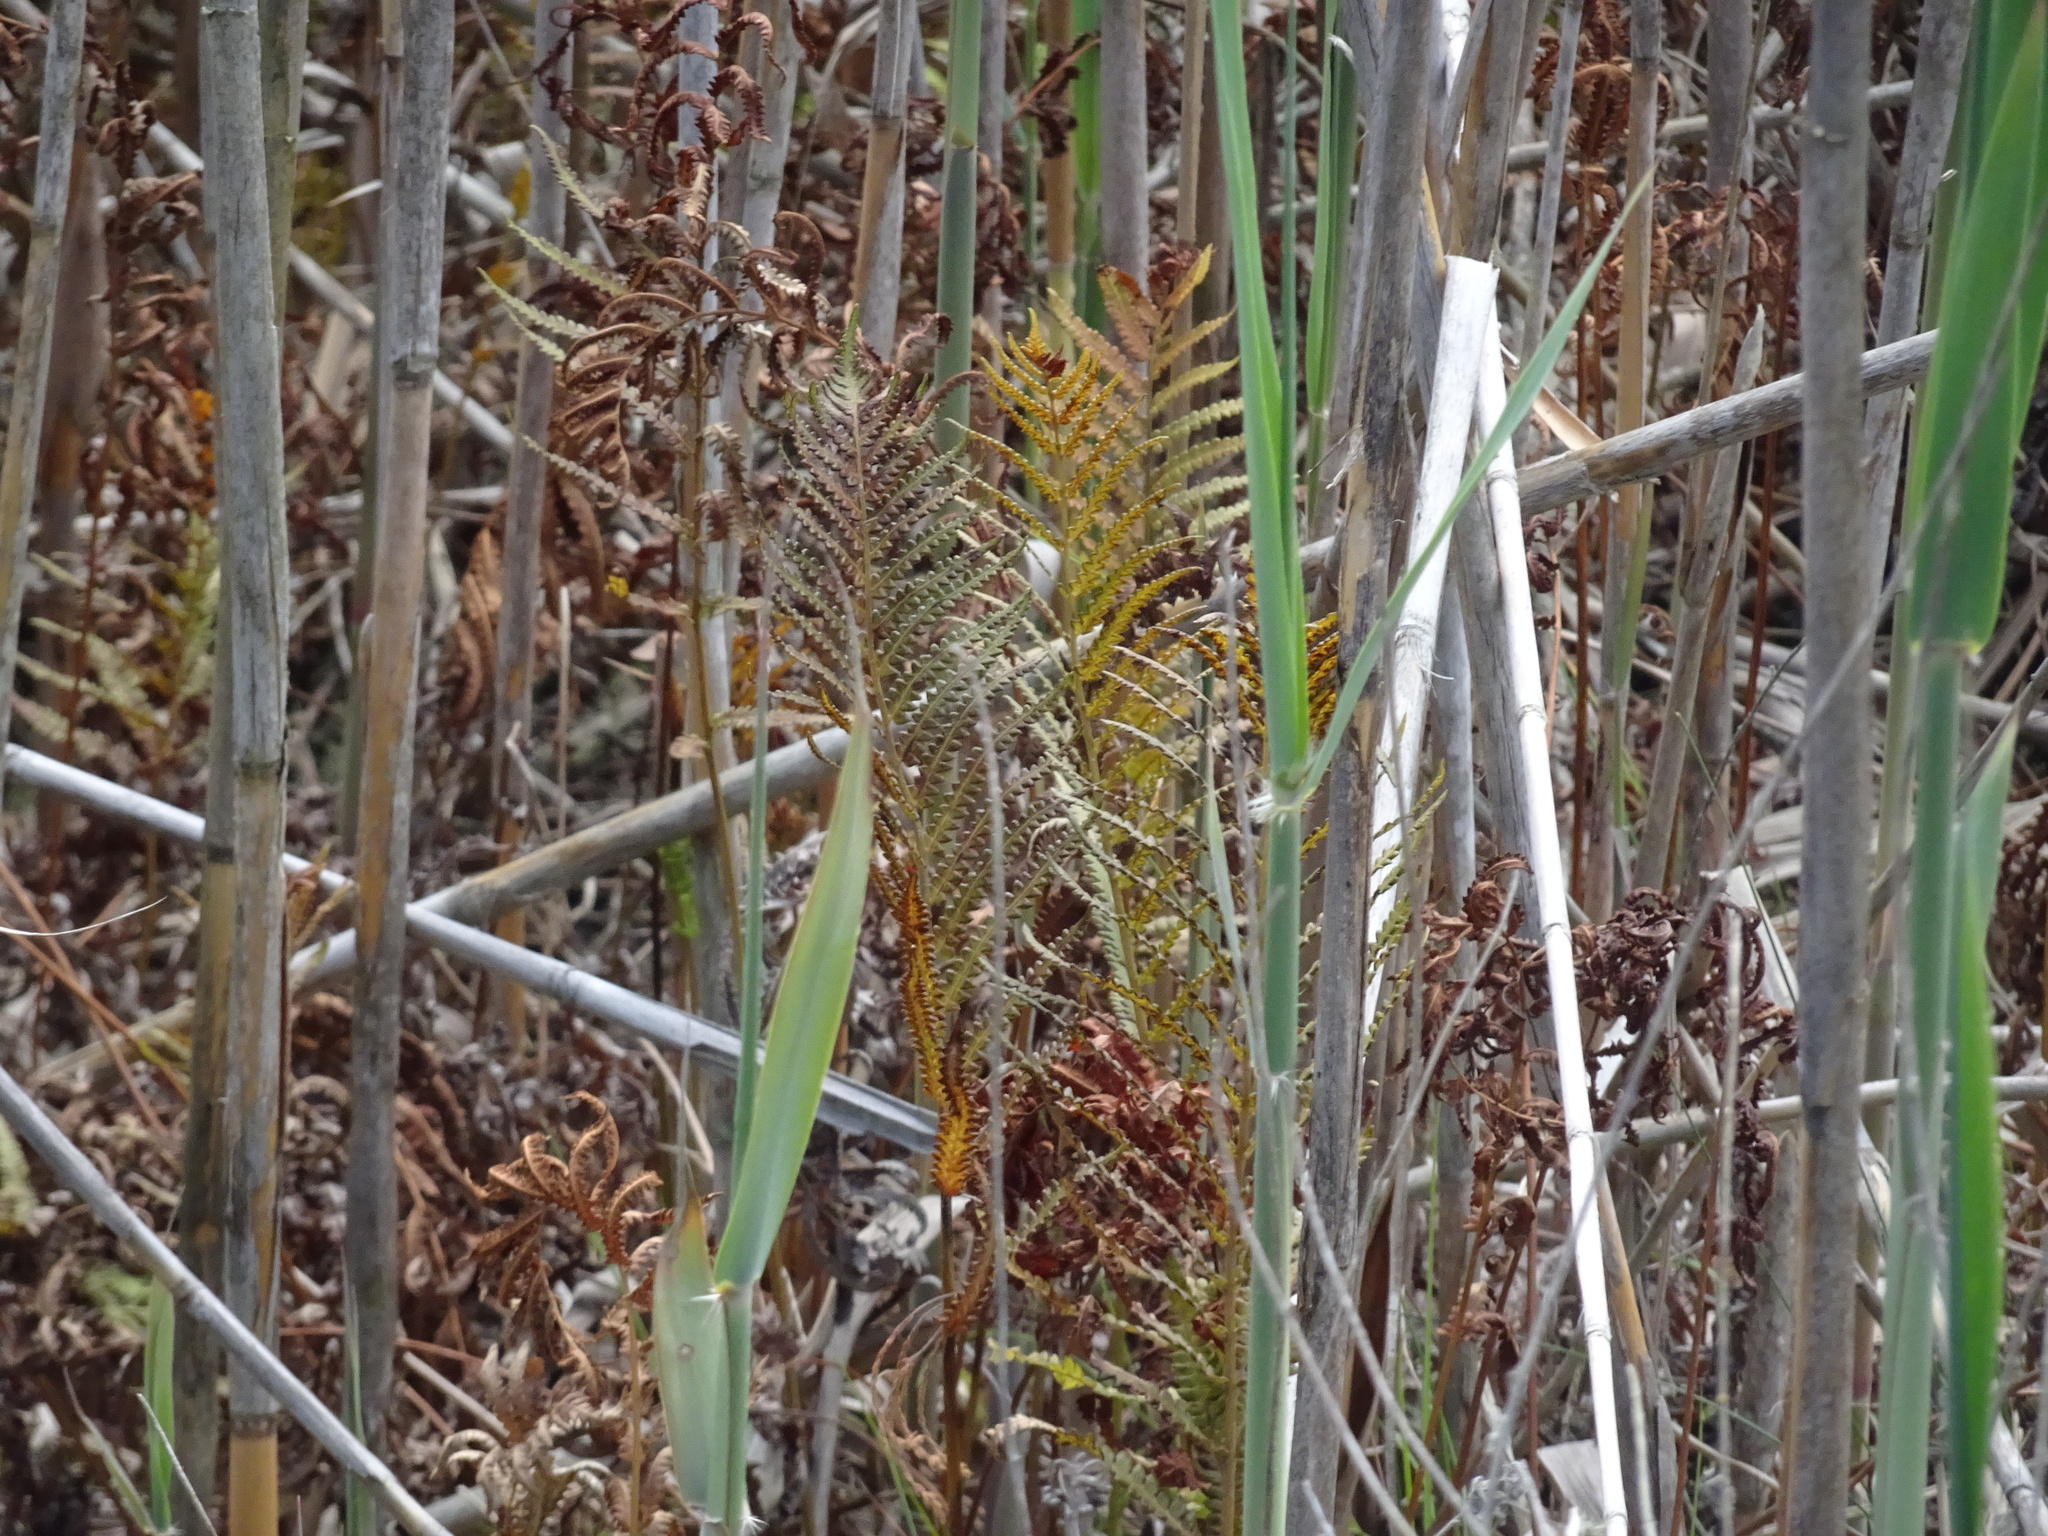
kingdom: Plantae
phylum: Tracheophyta
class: Polypodiopsida
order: Polypodiales
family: Thelypteridaceae
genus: Cyclosorus
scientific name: Cyclosorus interruptus
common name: Neke fern
